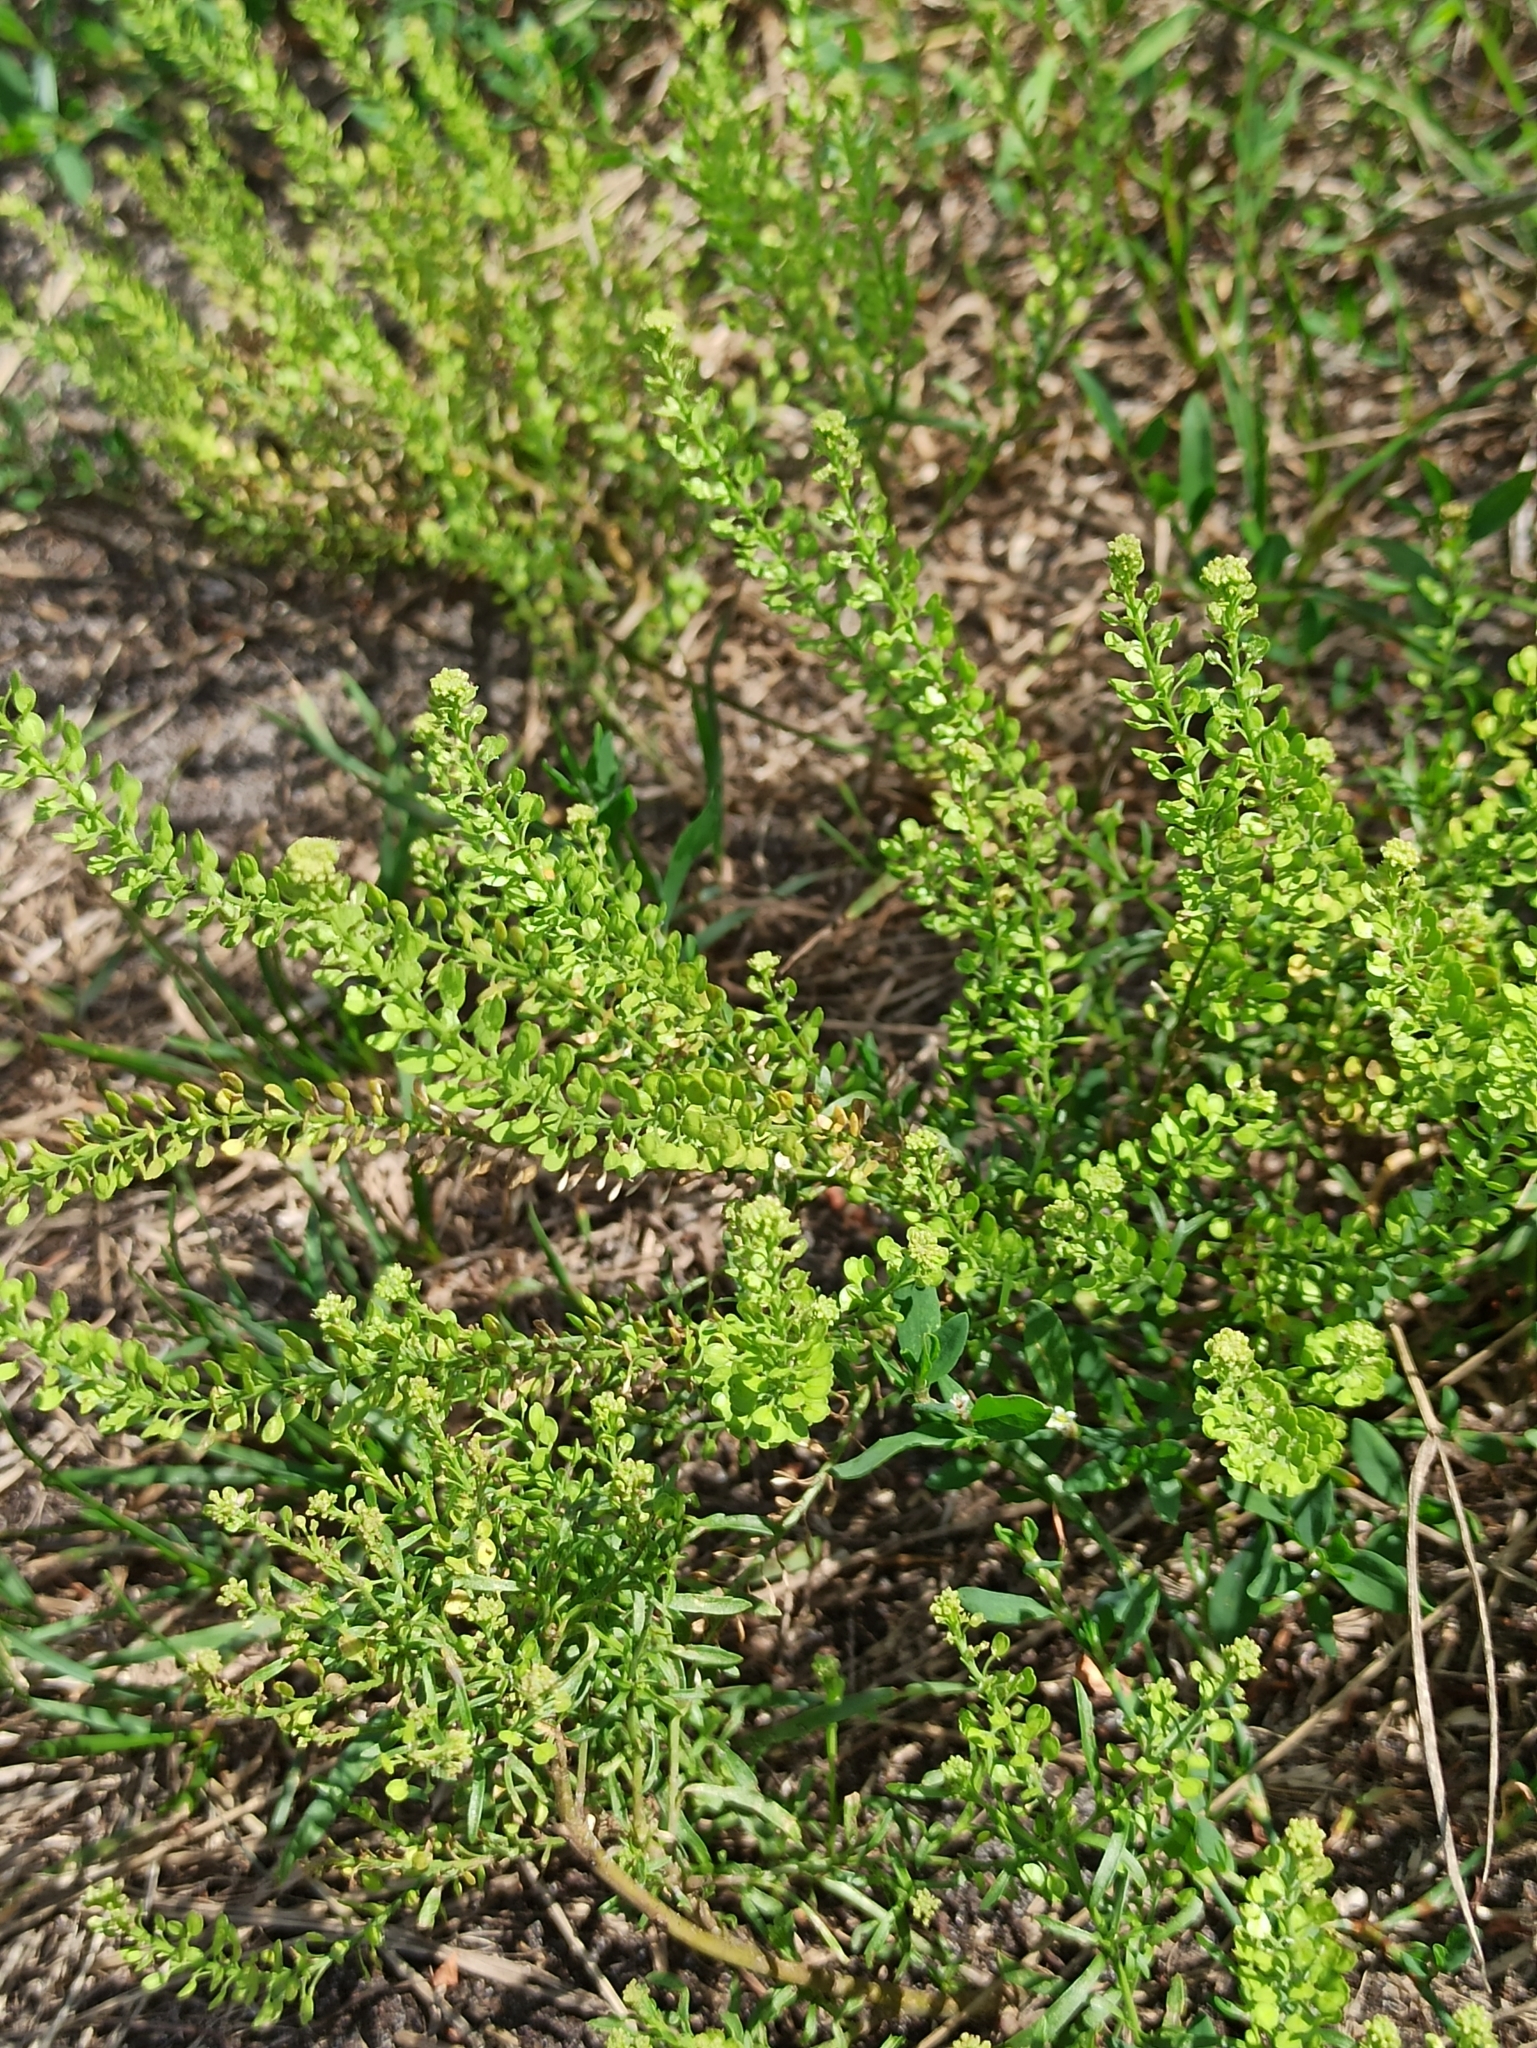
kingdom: Plantae
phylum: Tracheophyta
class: Magnoliopsida
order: Brassicales
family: Brassicaceae
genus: Lepidium
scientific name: Lepidium densiflorum
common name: Miner's pepperwort
